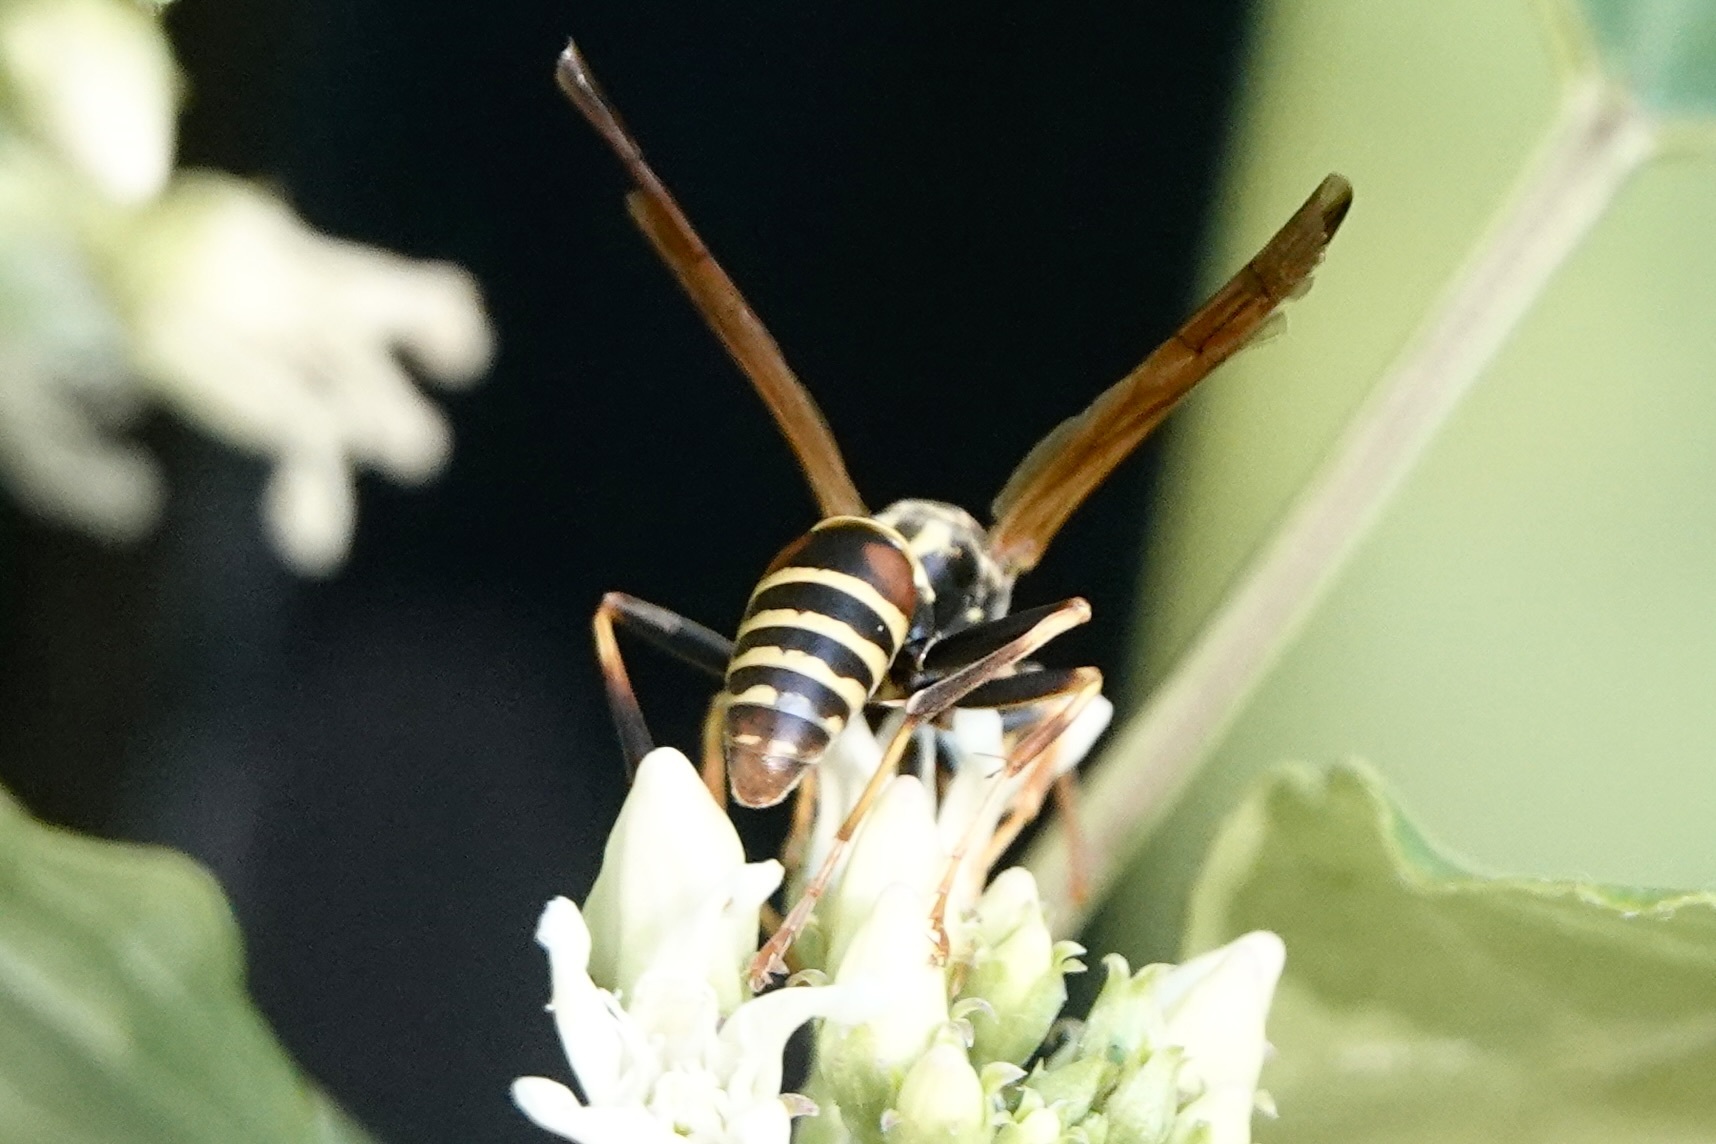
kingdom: Animalia
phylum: Arthropoda
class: Insecta
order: Hymenoptera
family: Eumenidae
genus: Polistes
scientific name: Polistes dorsalis
